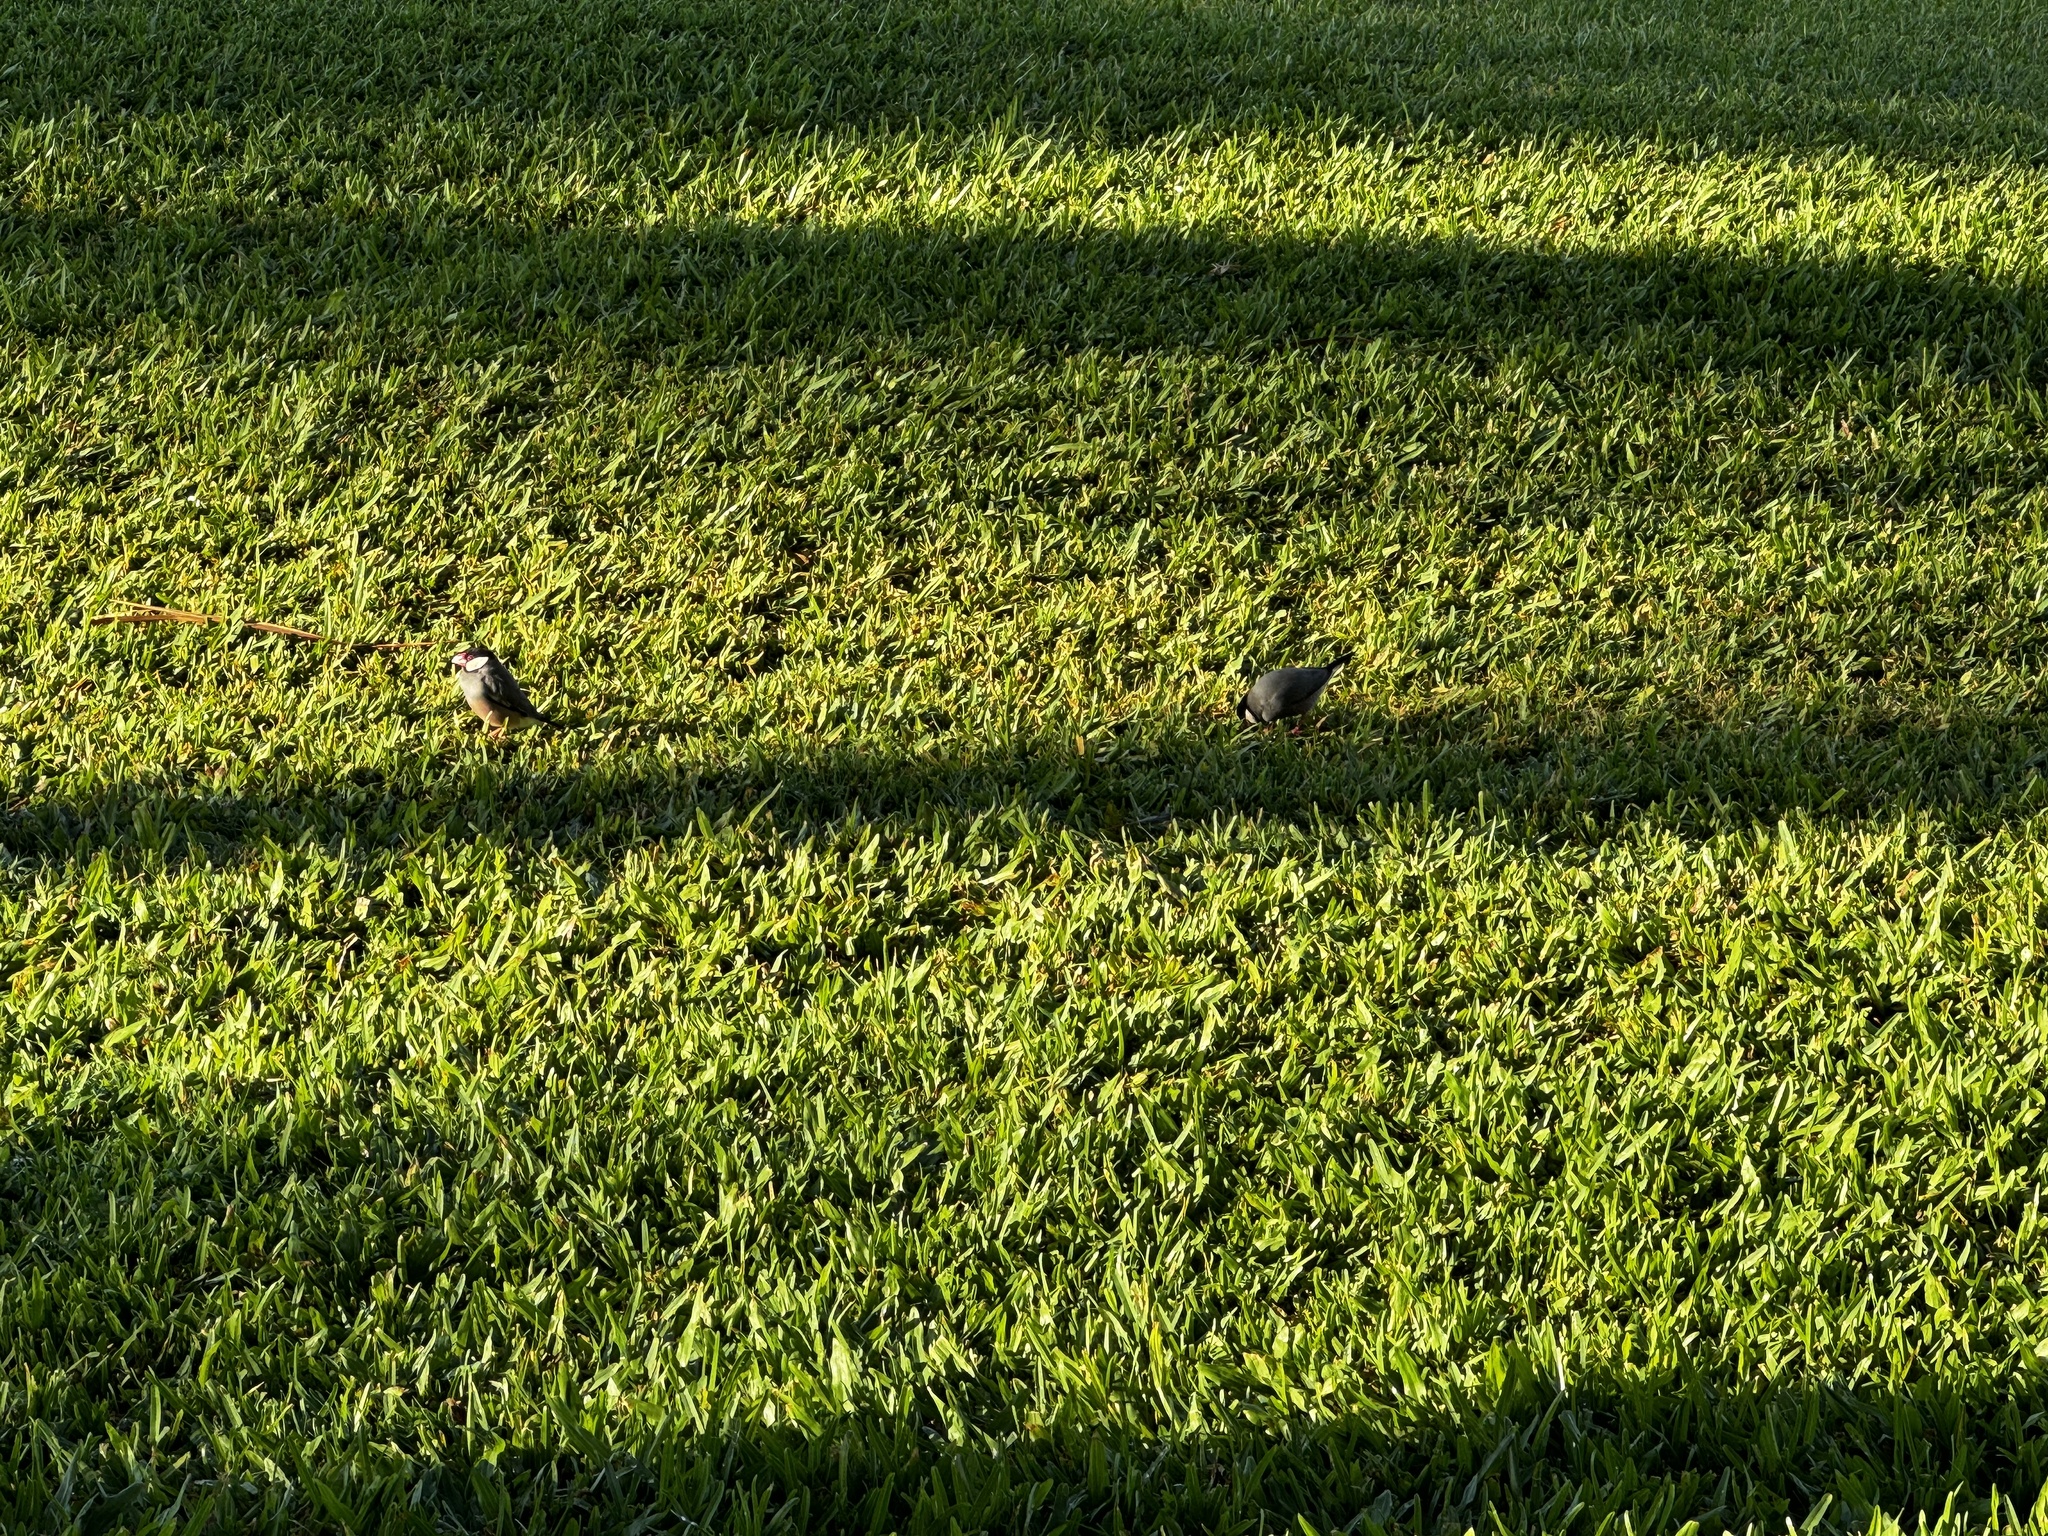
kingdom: Animalia
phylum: Chordata
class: Aves
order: Passeriformes
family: Estrildidae
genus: Lonchura
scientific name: Lonchura oryzivora
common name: Java sparrow
